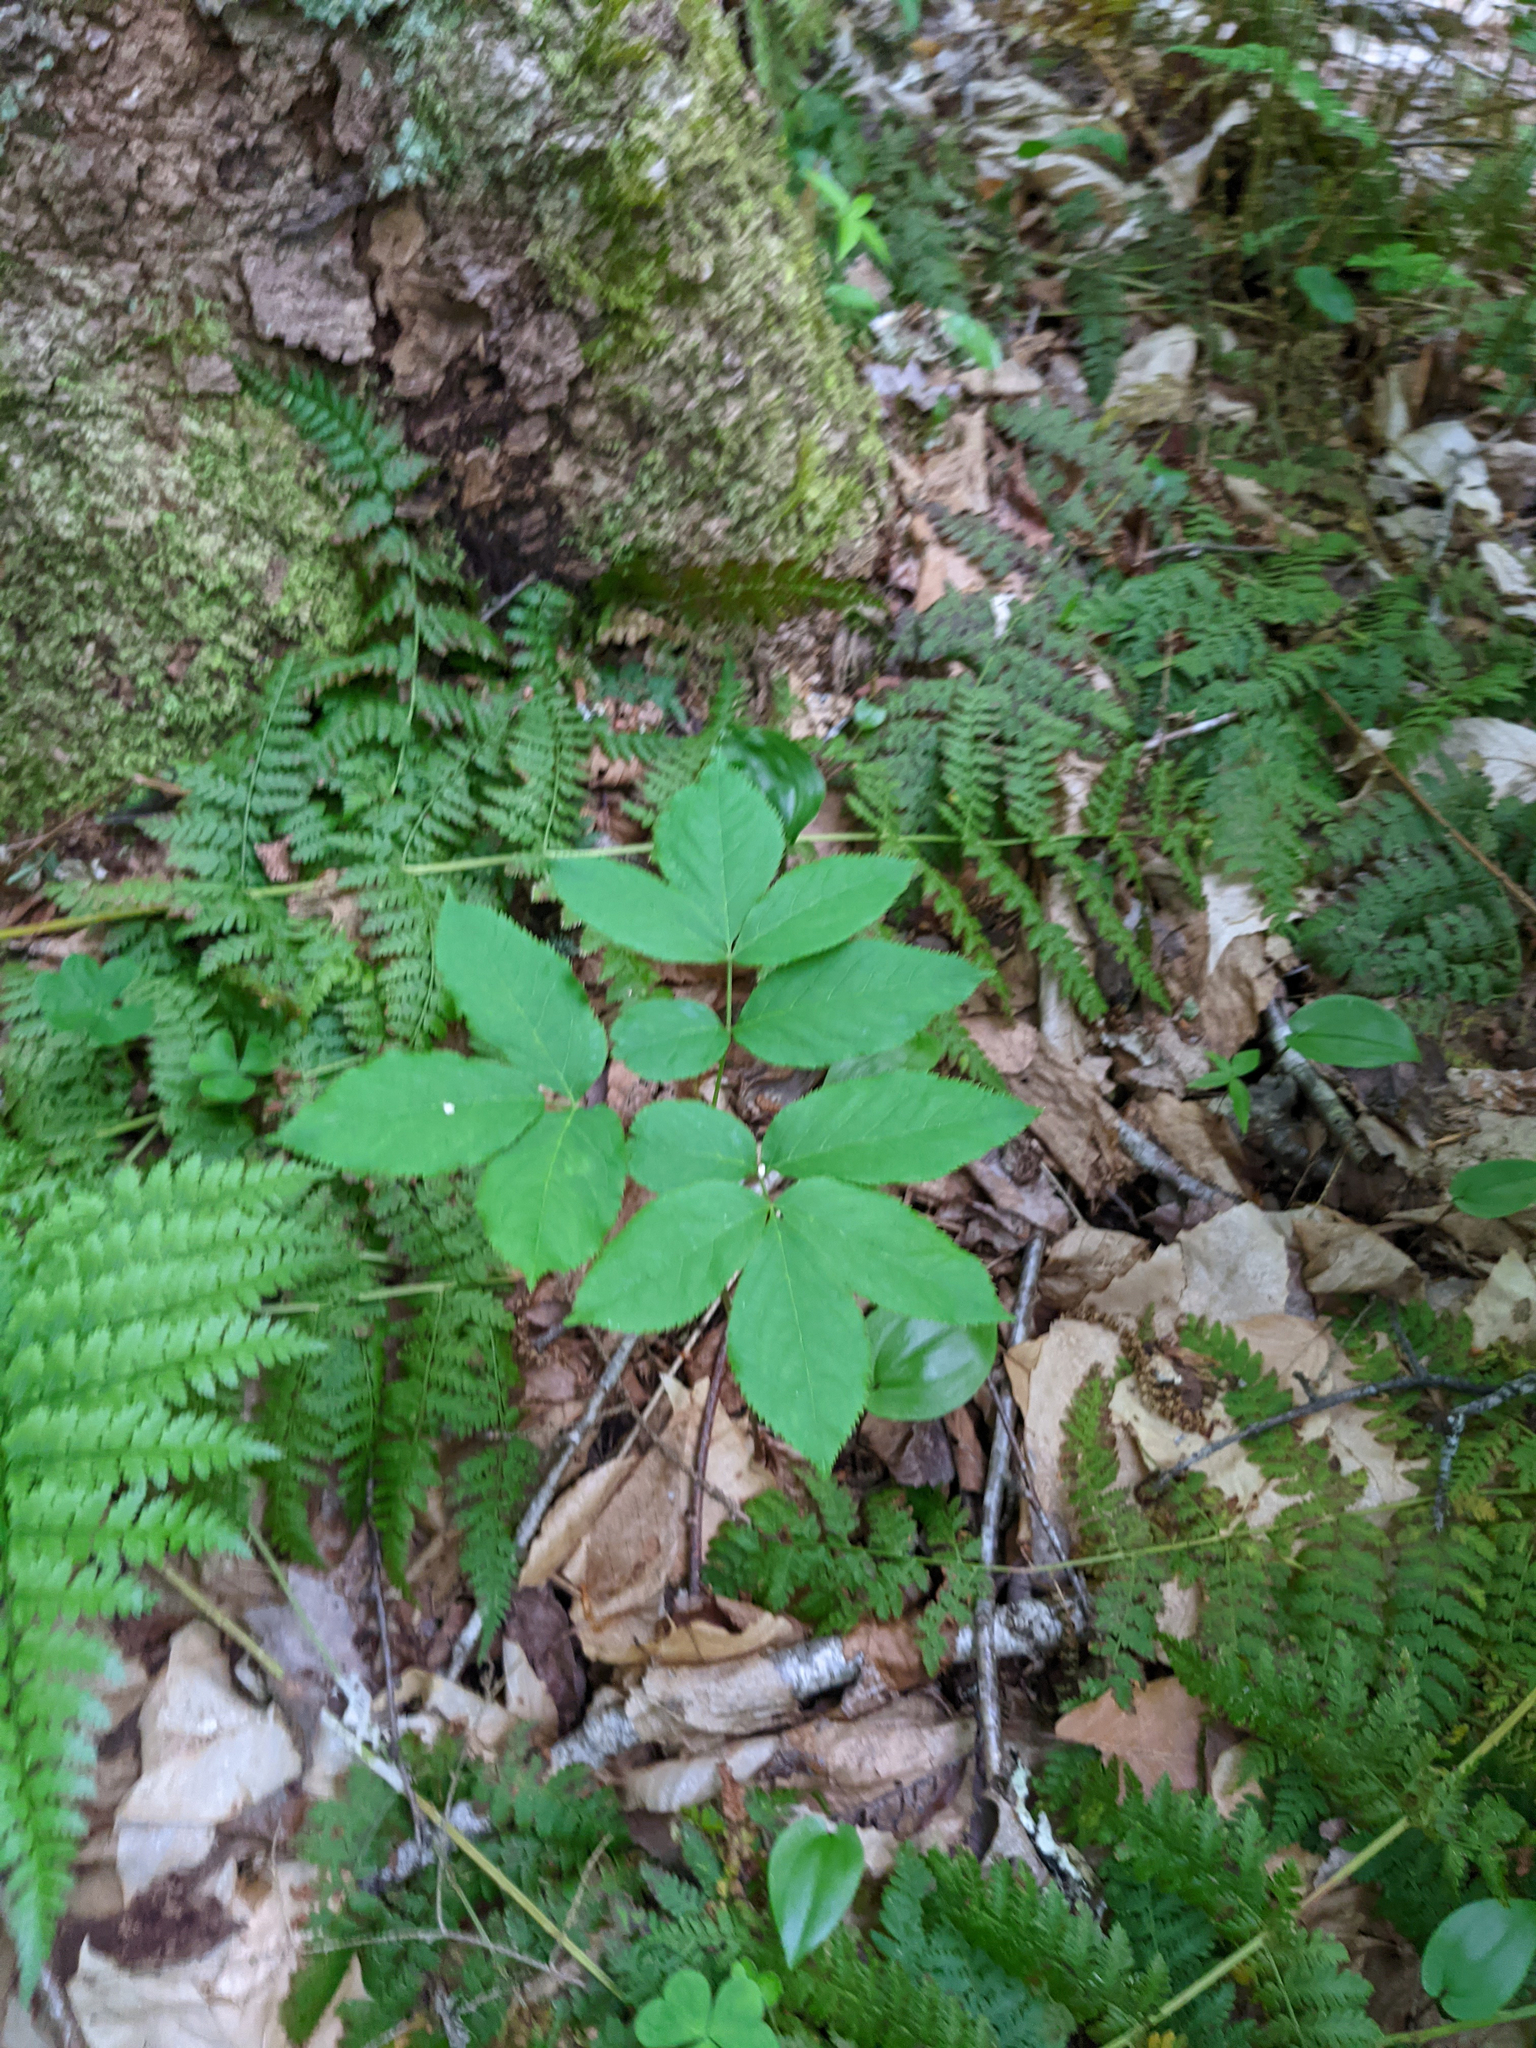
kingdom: Plantae
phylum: Tracheophyta
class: Magnoliopsida
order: Apiales
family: Araliaceae
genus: Aralia
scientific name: Aralia nudicaulis
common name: Wild sarsaparilla
